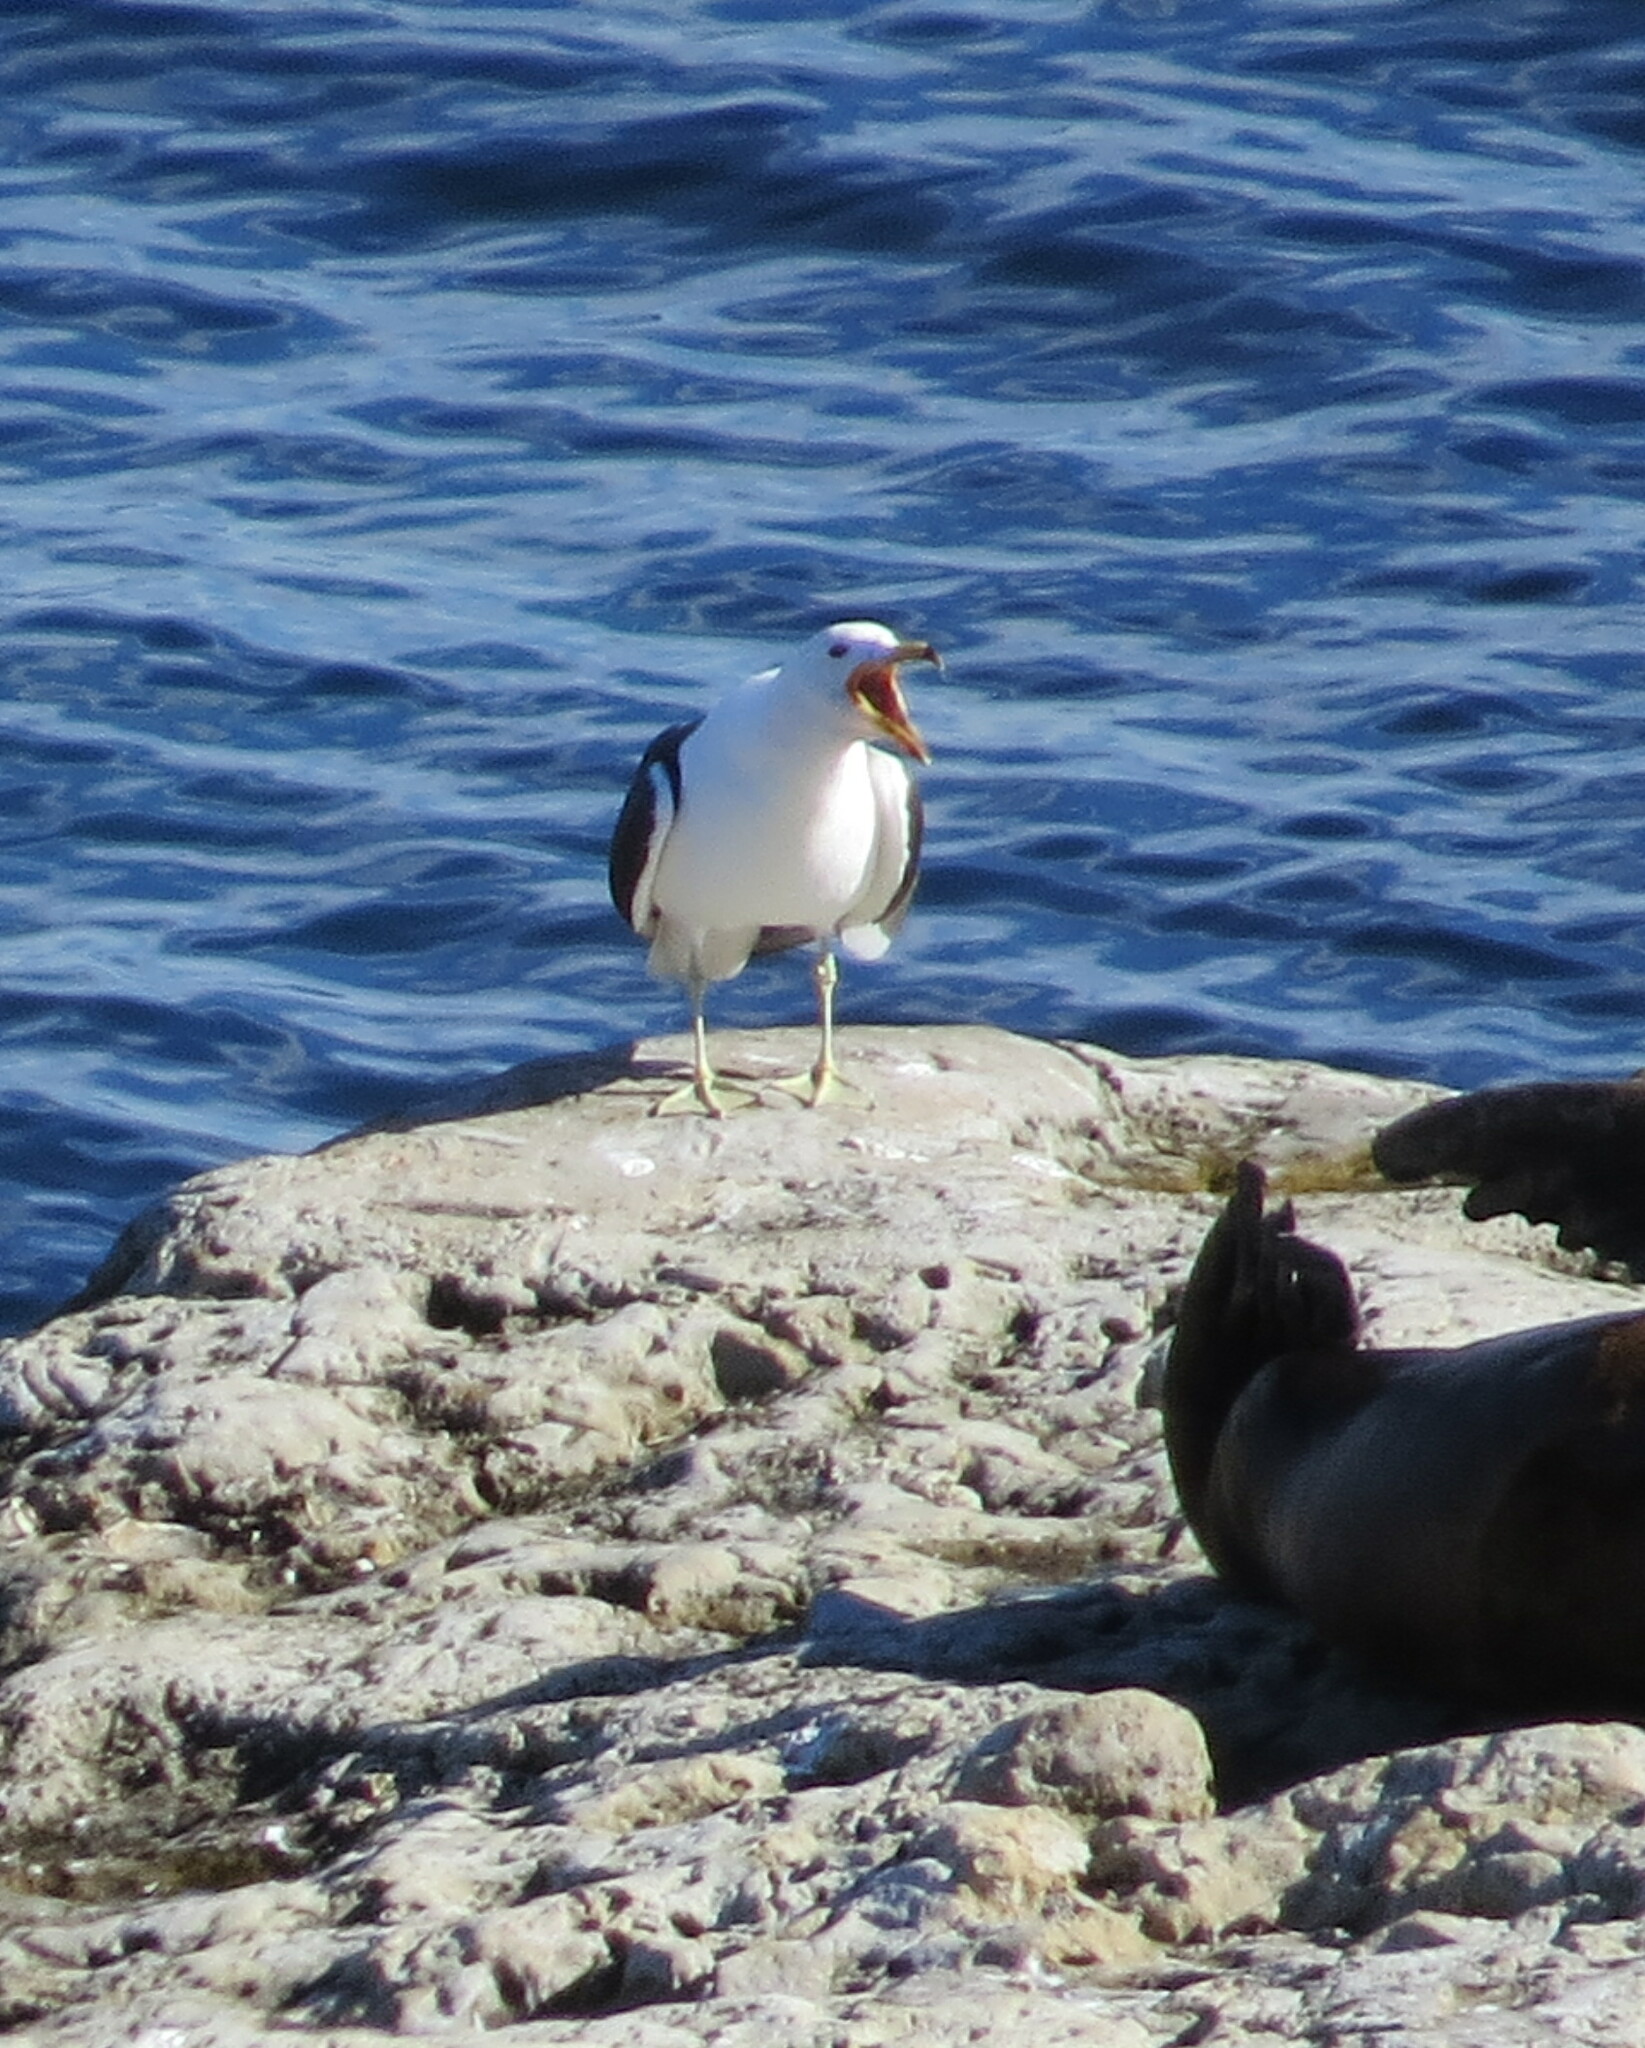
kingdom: Animalia
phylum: Chordata
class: Aves
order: Charadriiformes
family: Laridae
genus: Larus
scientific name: Larus atlanticus
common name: Olrog's gull
